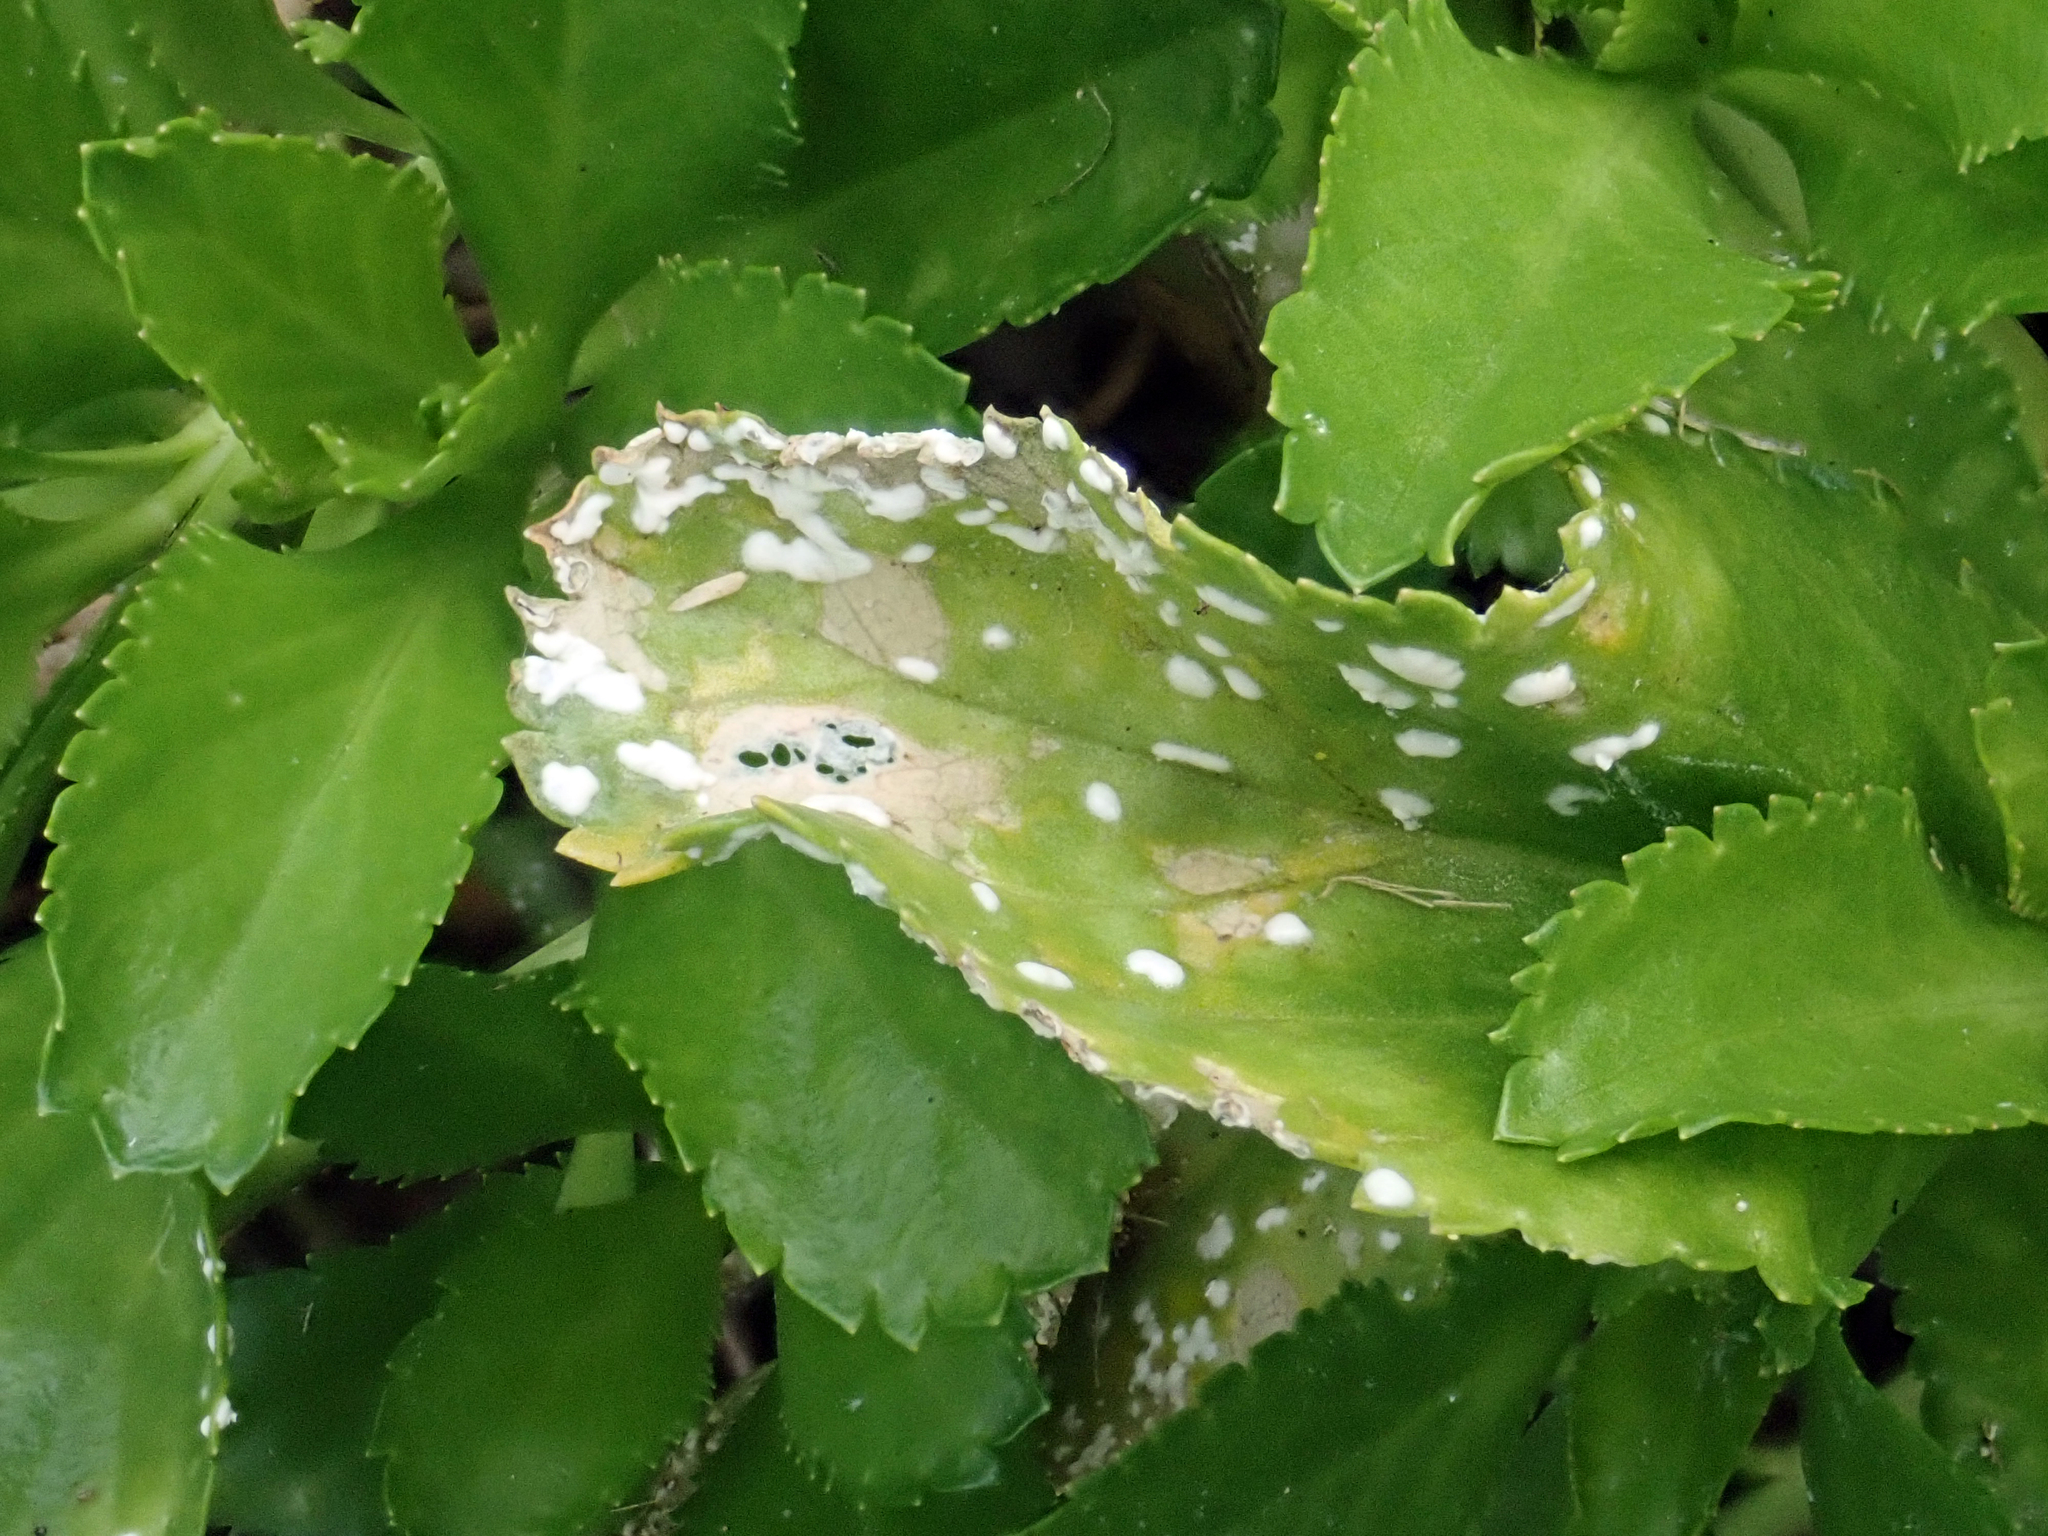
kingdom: Chromista
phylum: Oomycota
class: Peronosporea
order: Albuginales
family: Albuginaceae
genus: Albugo
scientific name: Albugo lepidii
